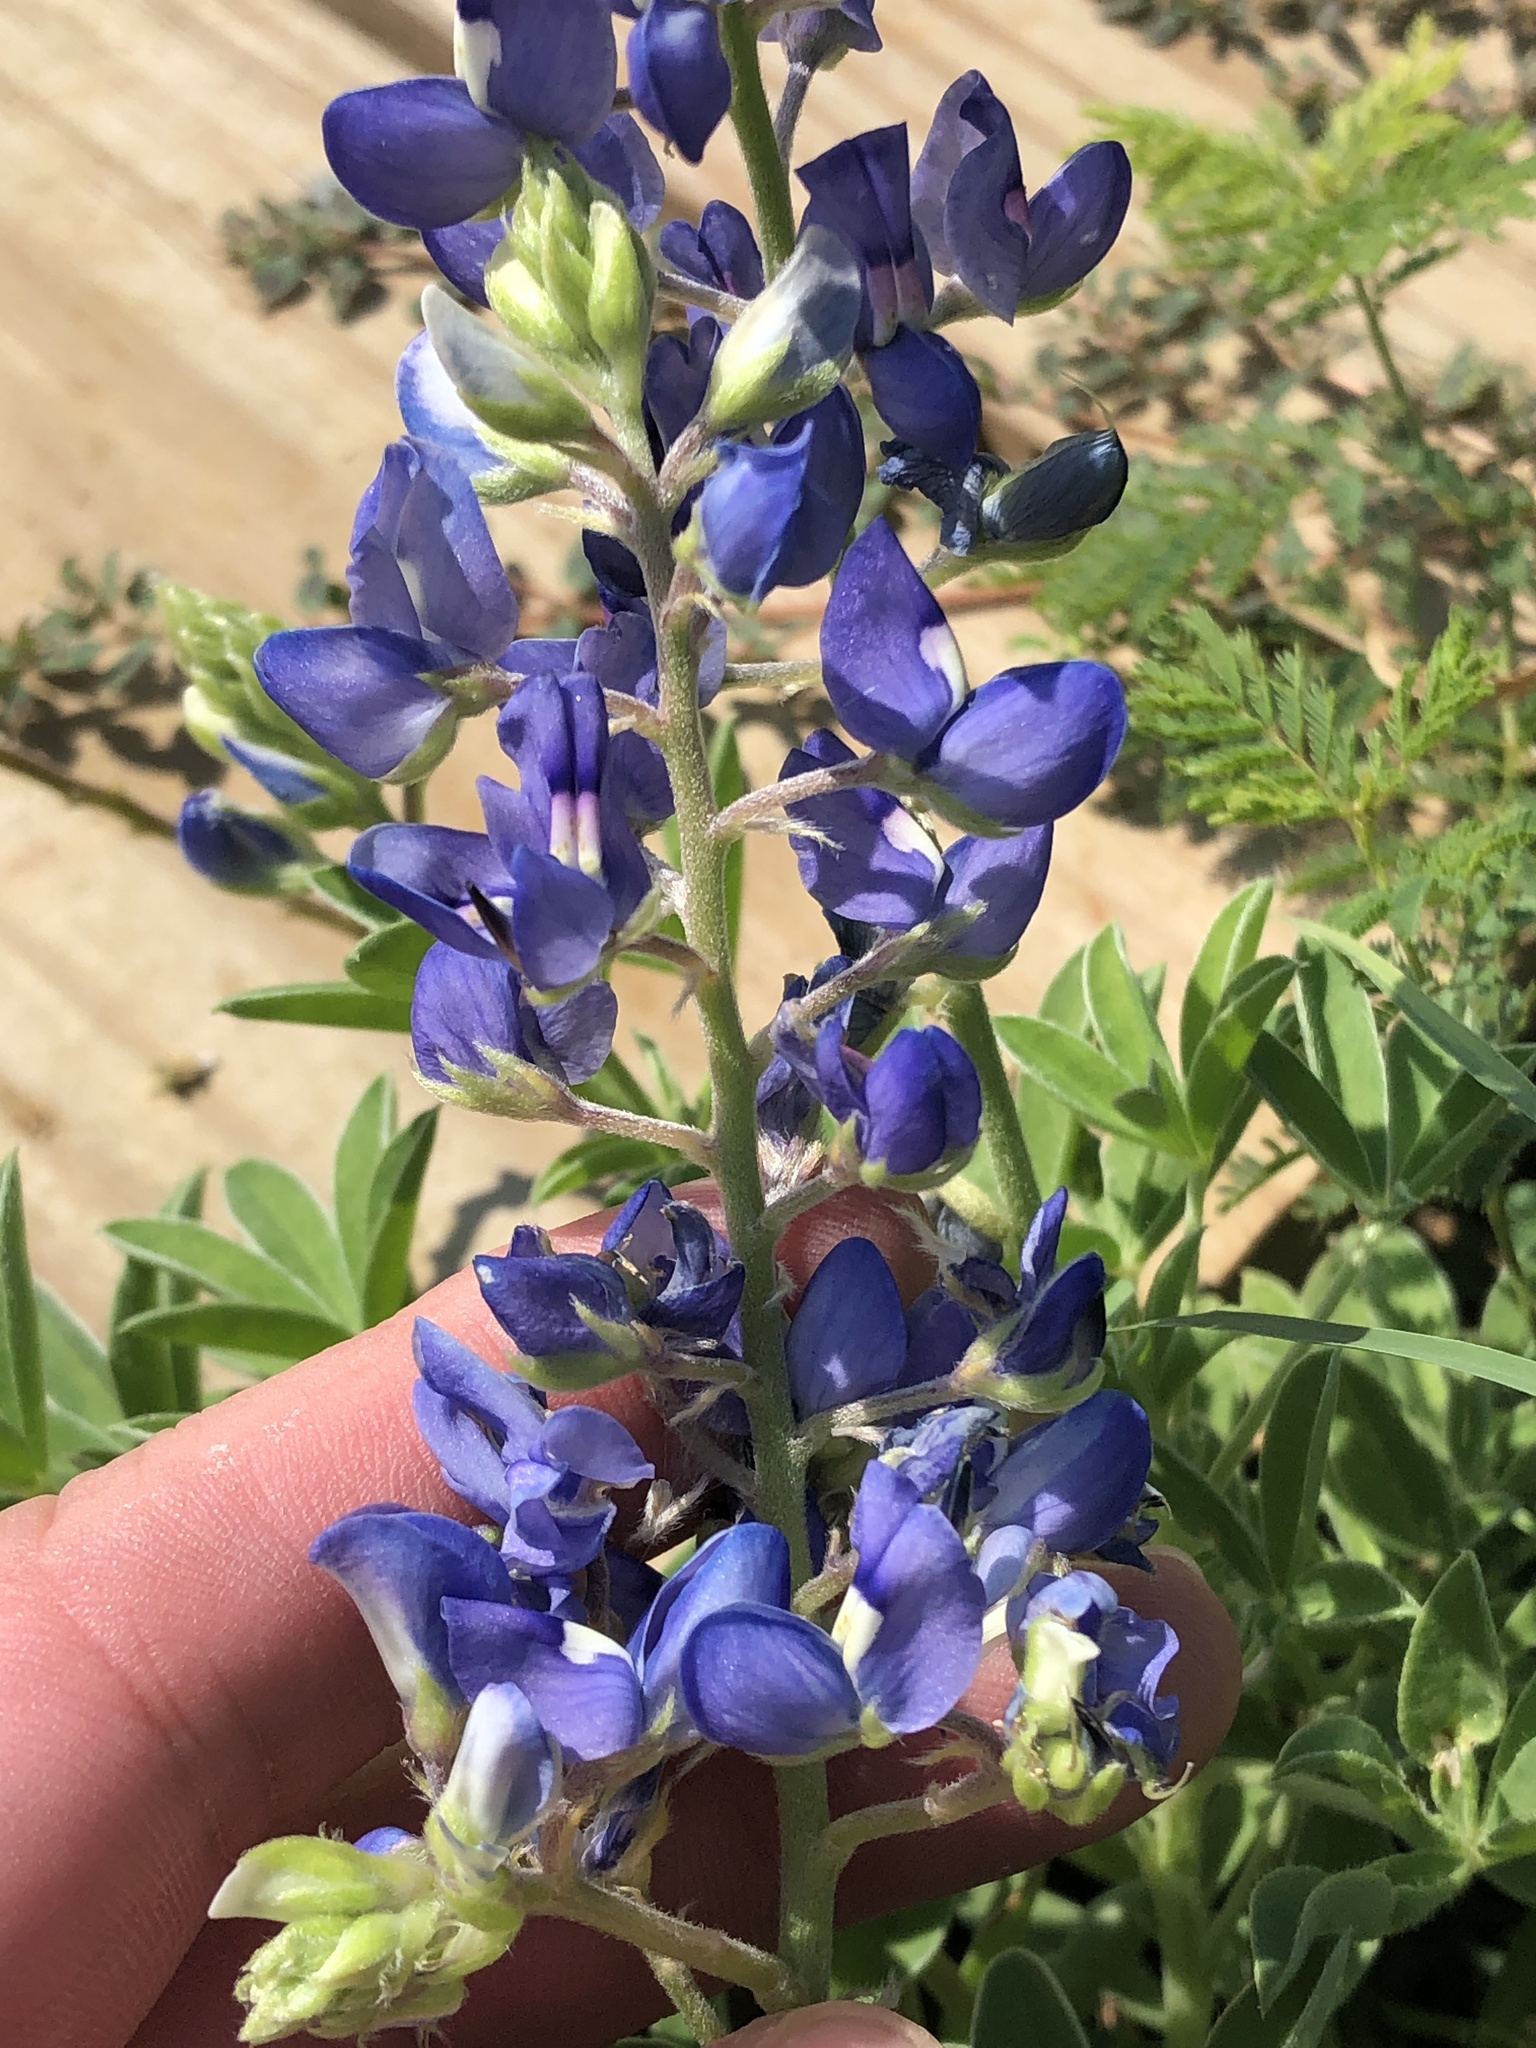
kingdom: Plantae
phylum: Tracheophyta
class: Magnoliopsida
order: Fabales
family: Fabaceae
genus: Lupinus
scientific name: Lupinus texensis
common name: Texas bluebonnet
